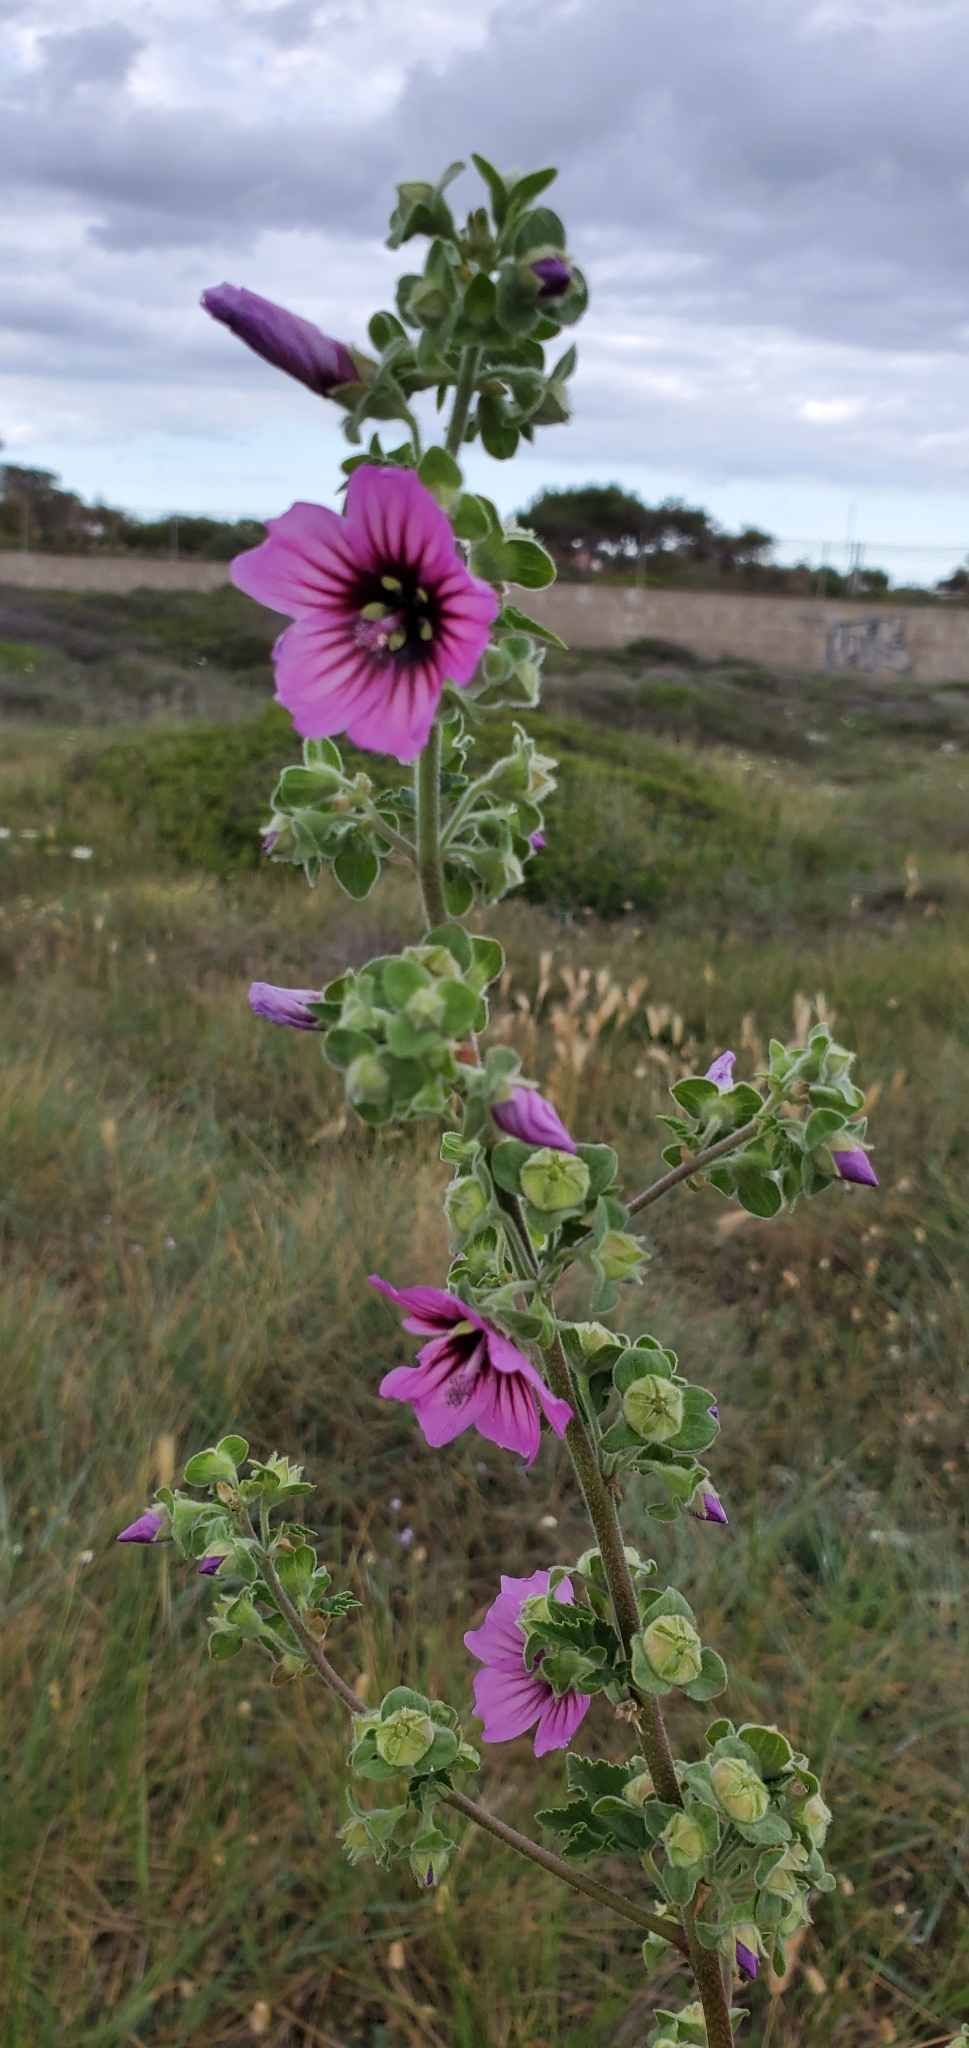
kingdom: Plantae
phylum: Tracheophyta
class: Magnoliopsida
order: Malvales
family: Malvaceae
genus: Malva
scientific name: Malva arborea
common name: Tree mallow
